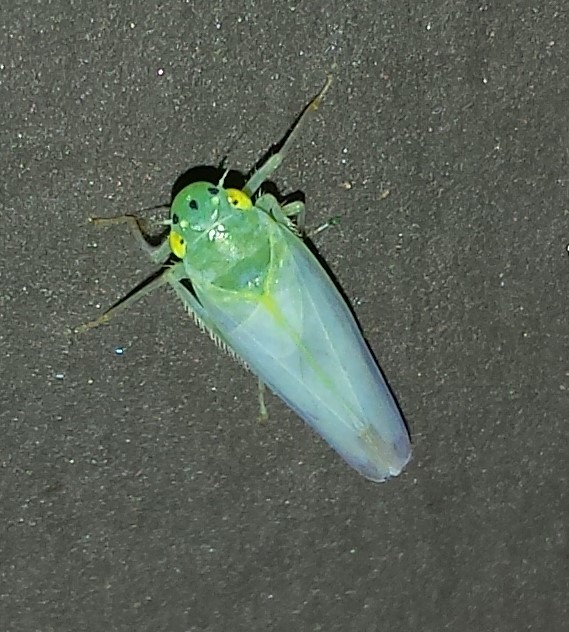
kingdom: Animalia
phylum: Arthropoda
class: Insecta
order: Hemiptera
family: Cicadellidae
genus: Pagaronia
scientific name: Pagaronia minor
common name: Leafhopper
